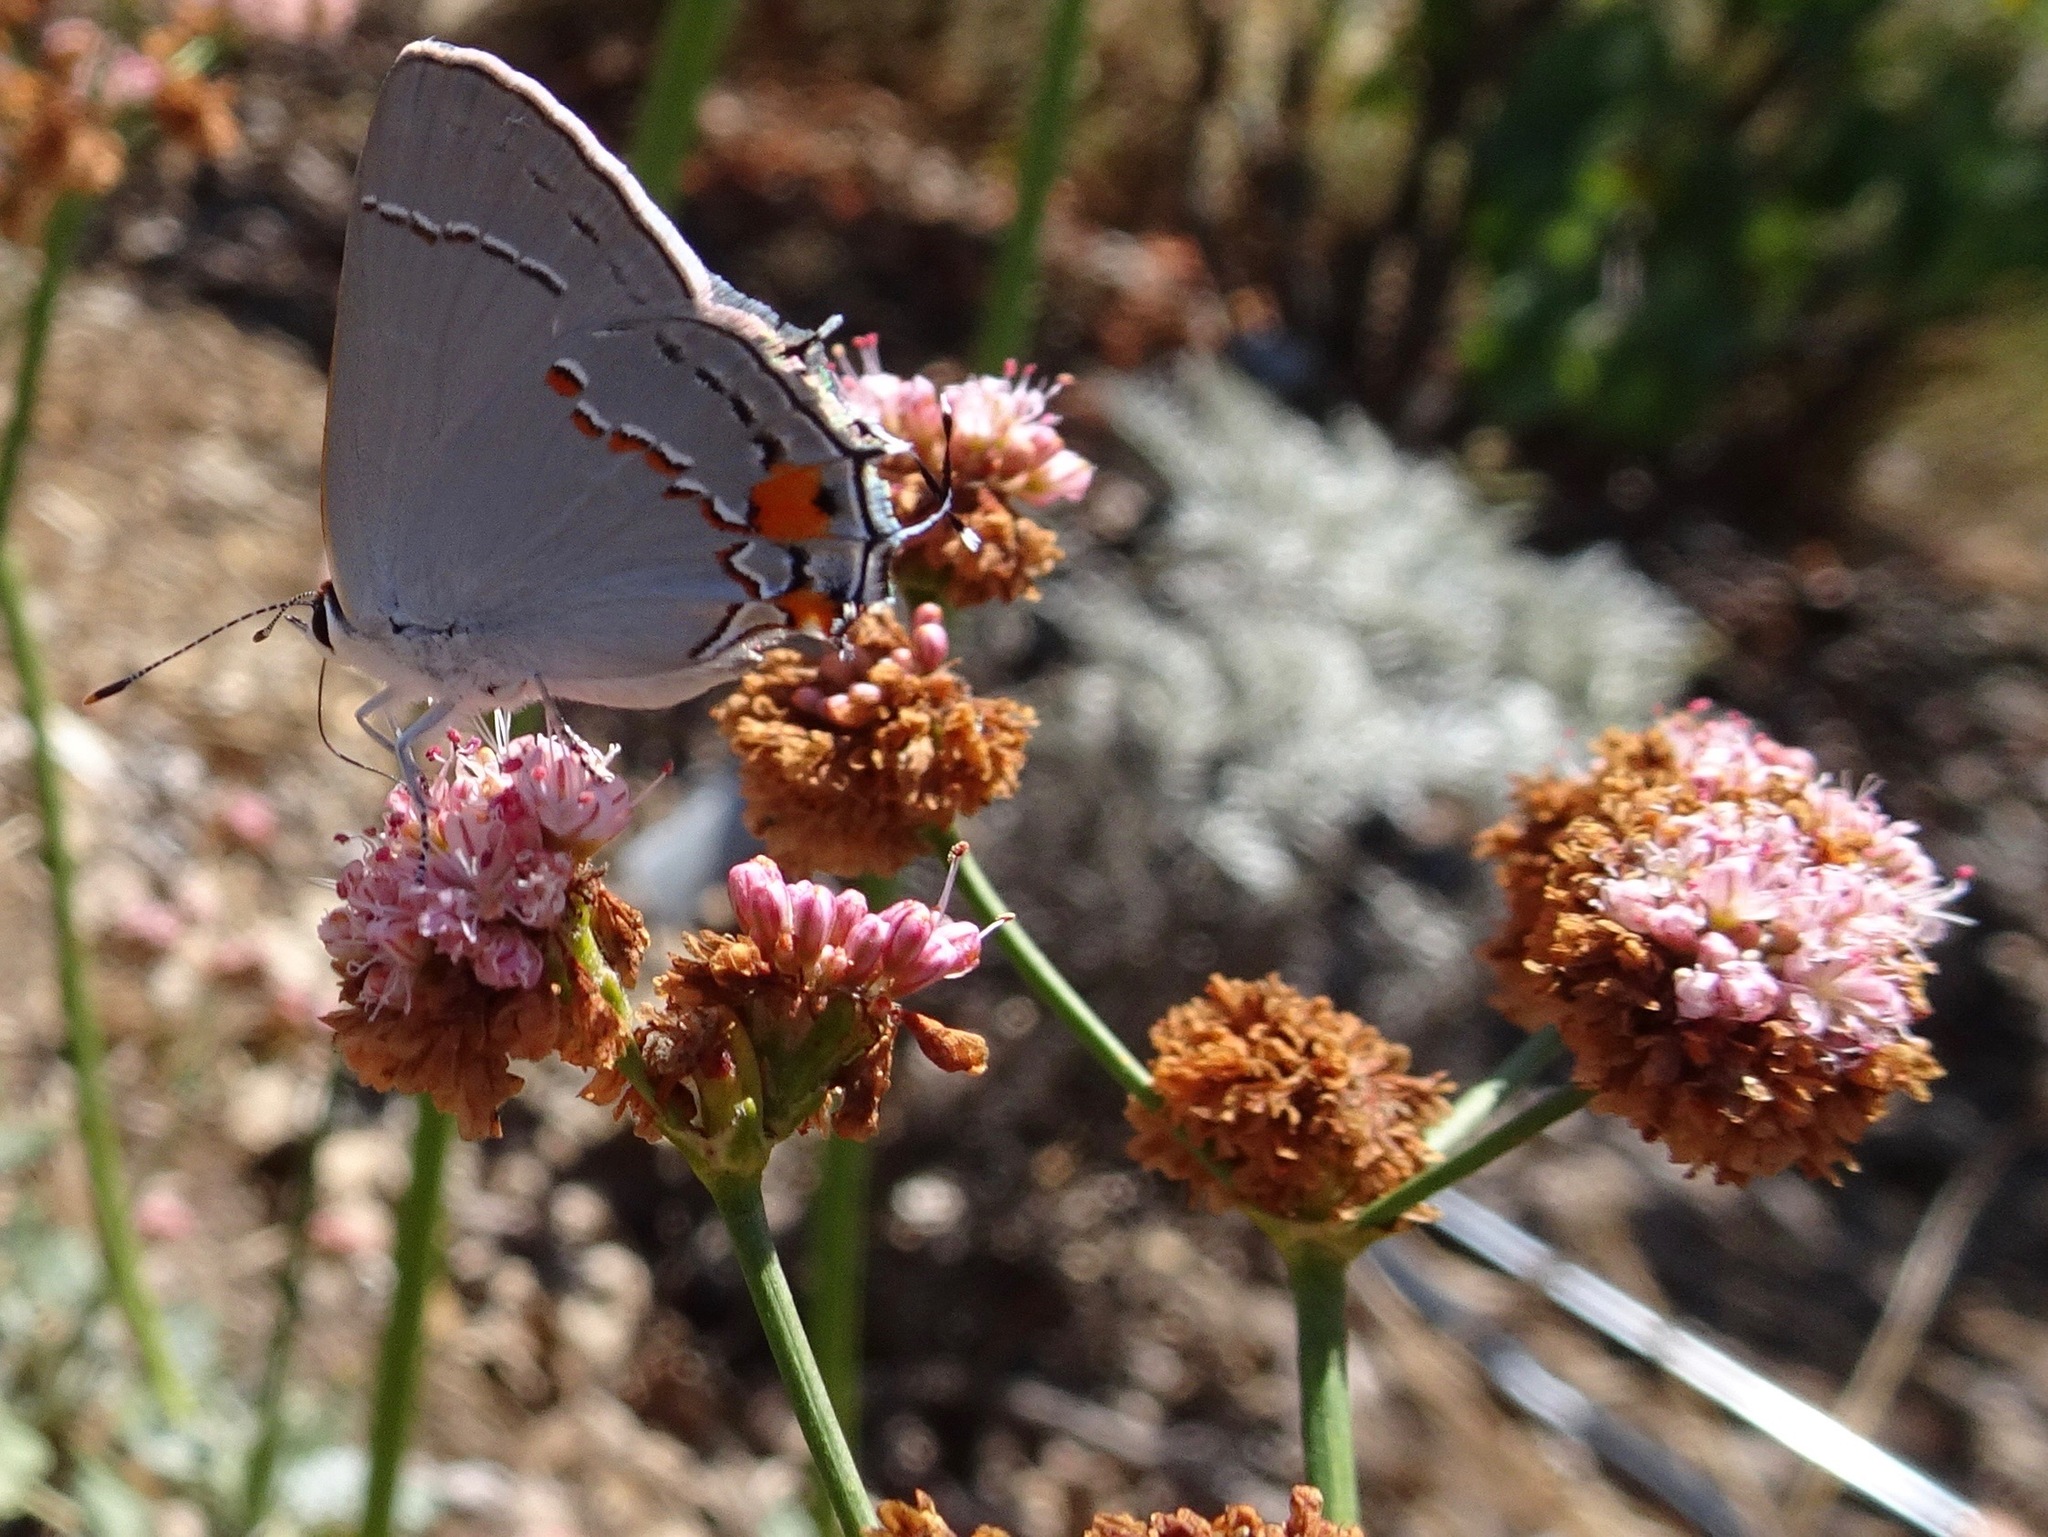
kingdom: Animalia
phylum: Arthropoda
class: Insecta
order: Lepidoptera
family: Lycaenidae
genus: Strymon
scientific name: Strymon melinus
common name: Gray hairstreak
